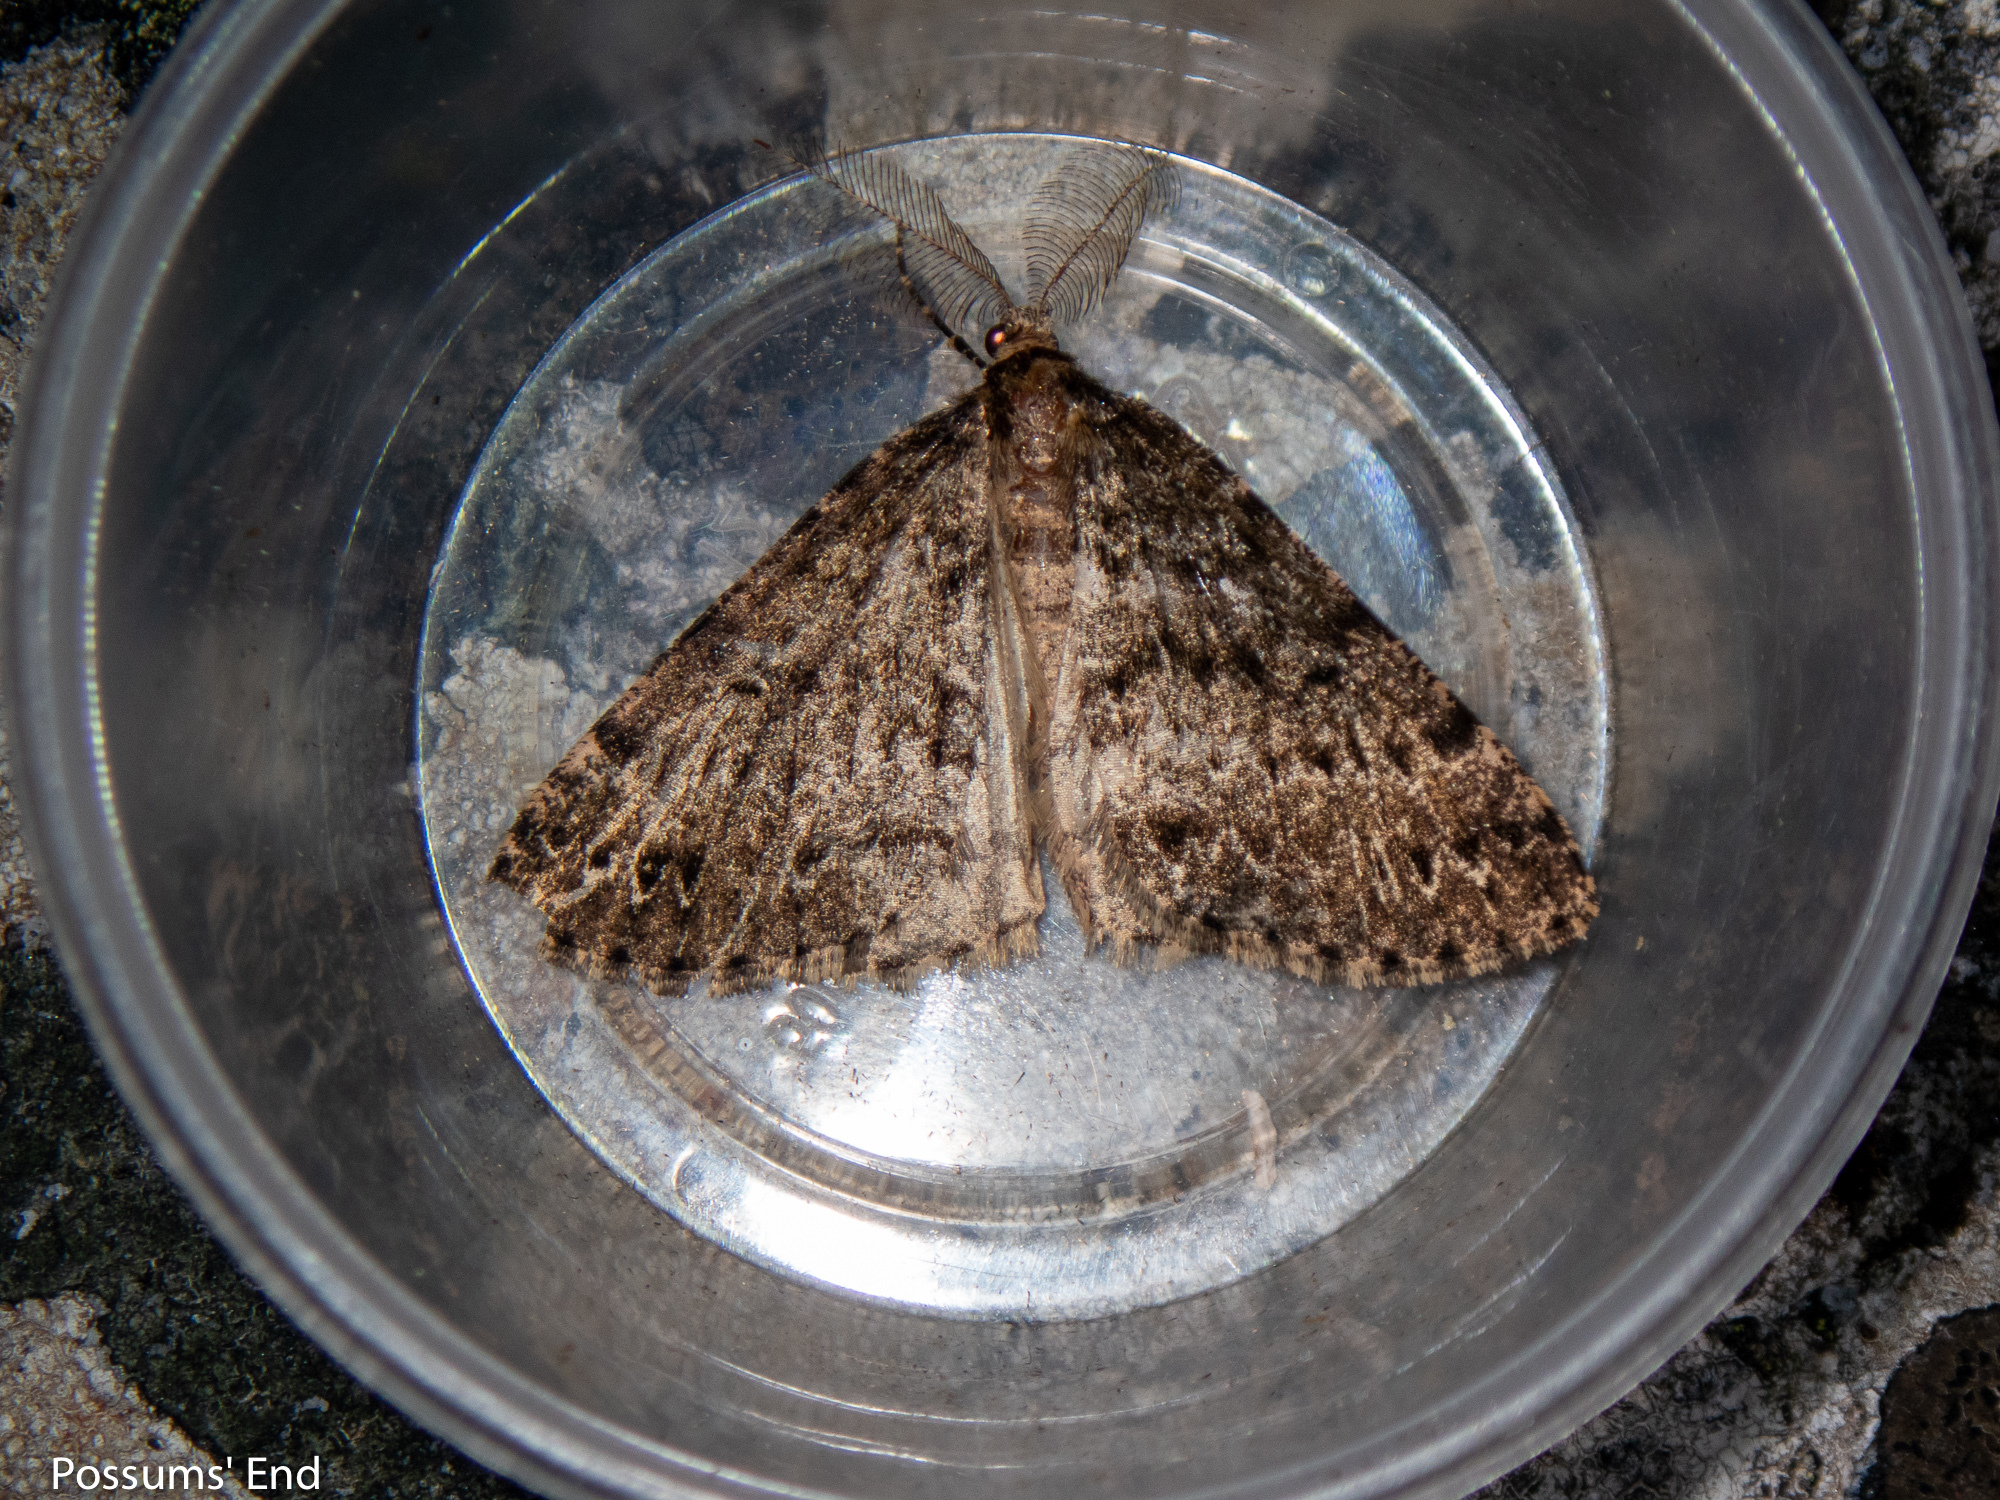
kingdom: Animalia
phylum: Arthropoda
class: Insecta
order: Lepidoptera
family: Geometridae
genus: Pseudocoremia
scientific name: Pseudocoremia terrena
